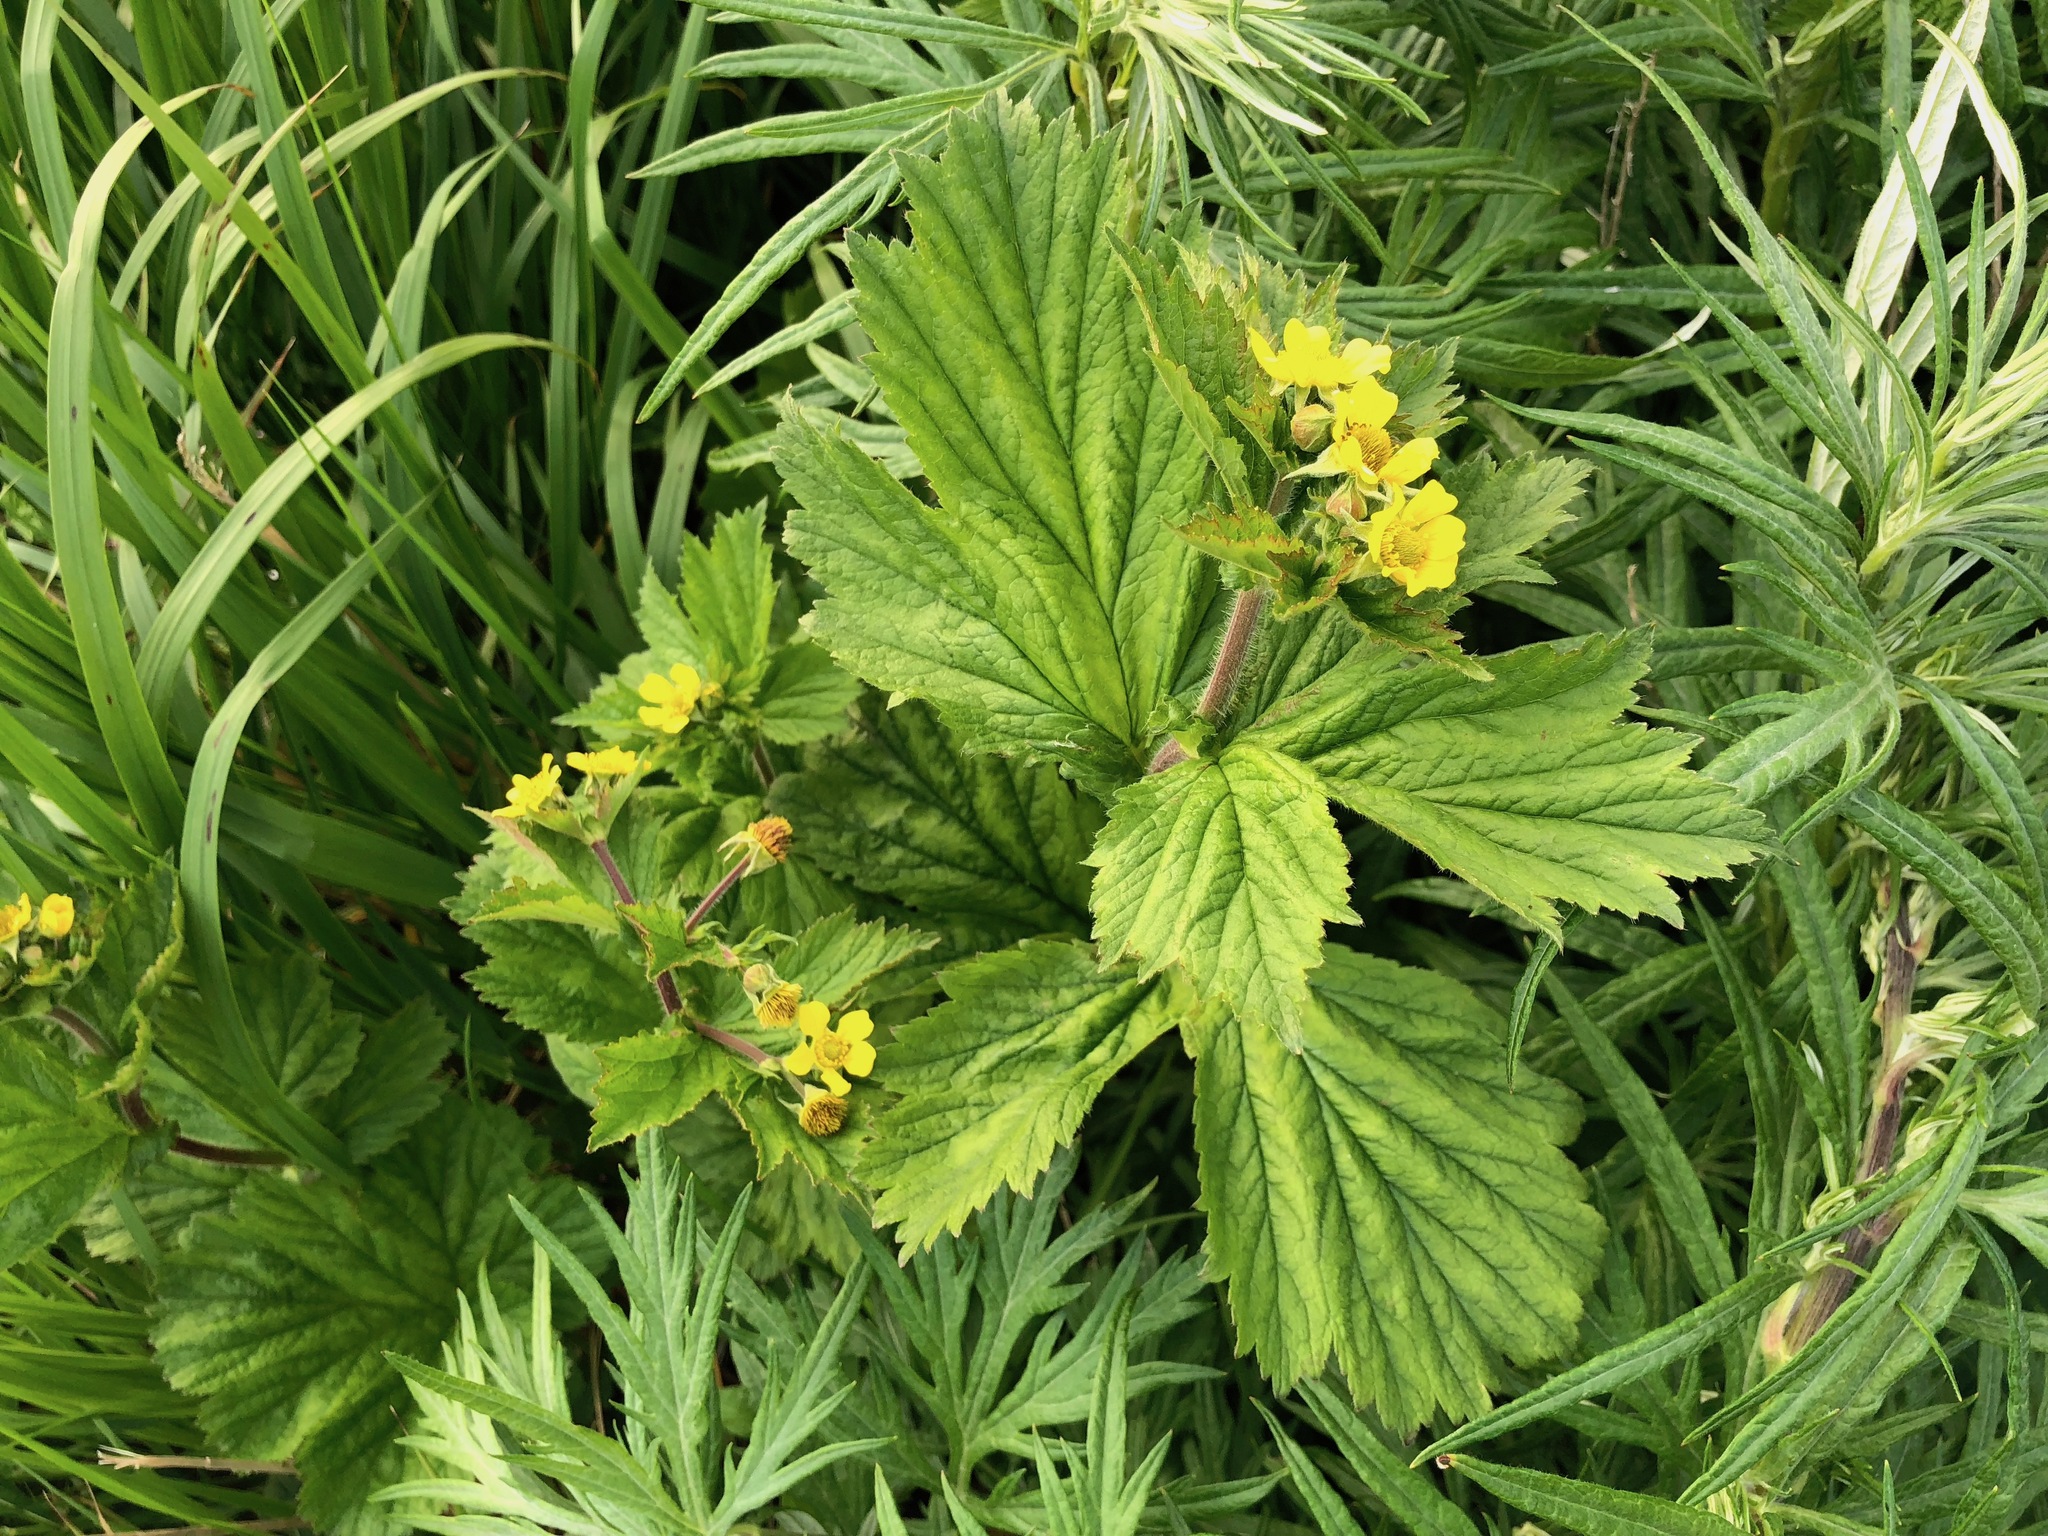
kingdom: Plantae
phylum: Tracheophyta
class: Magnoliopsida
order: Rosales
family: Rosaceae
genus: Geum
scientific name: Geum macrophyllum
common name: Large-leaved avens
